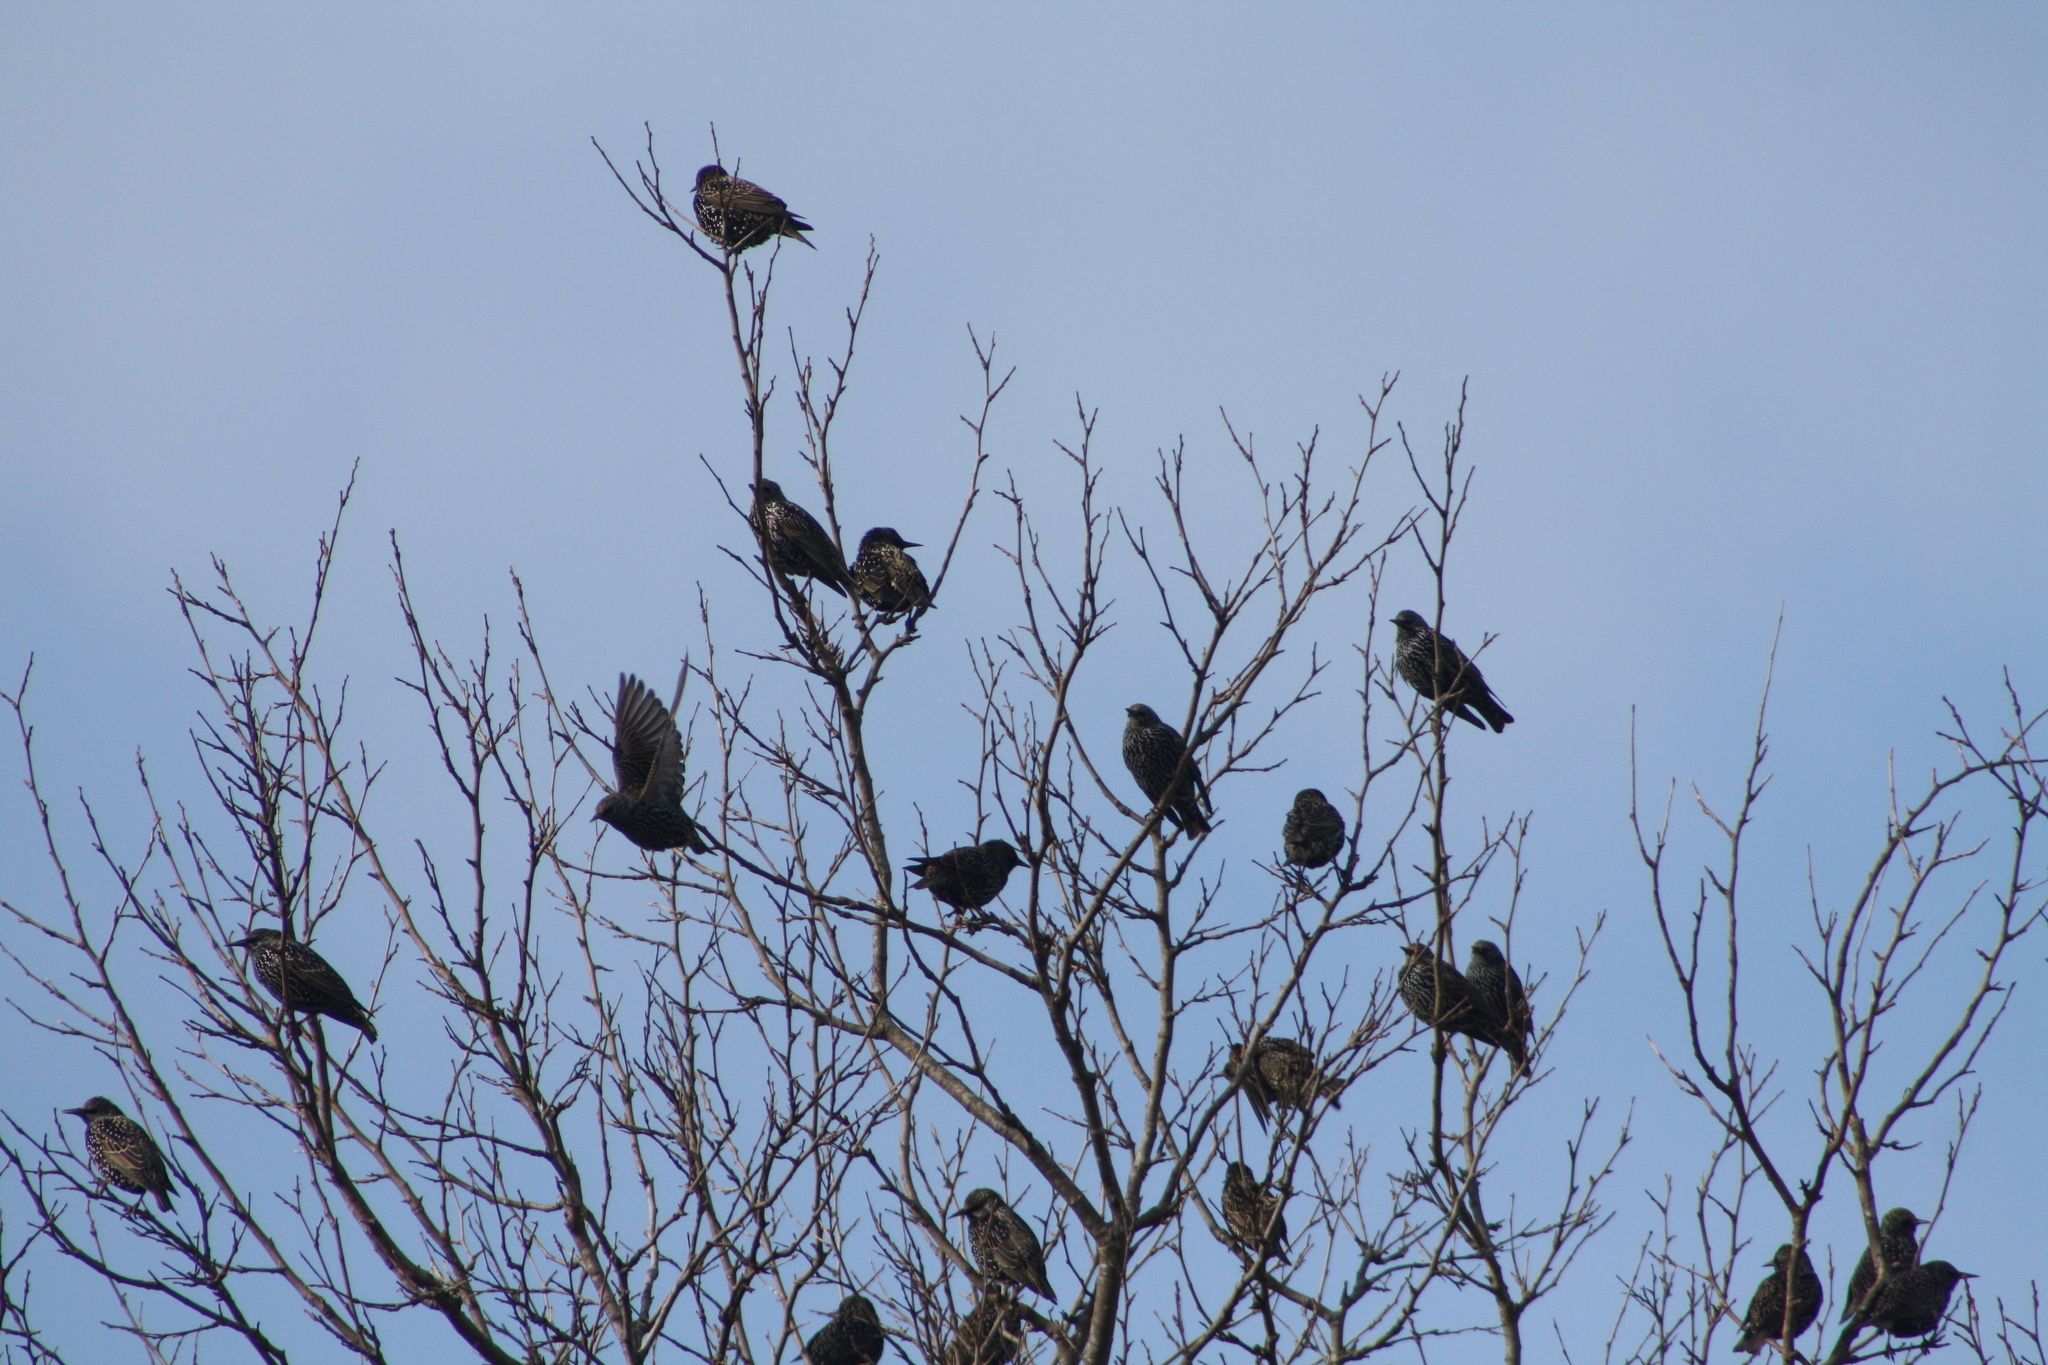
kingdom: Animalia
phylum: Chordata
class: Aves
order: Passeriformes
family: Sturnidae
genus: Sturnus
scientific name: Sturnus vulgaris
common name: Common starling
